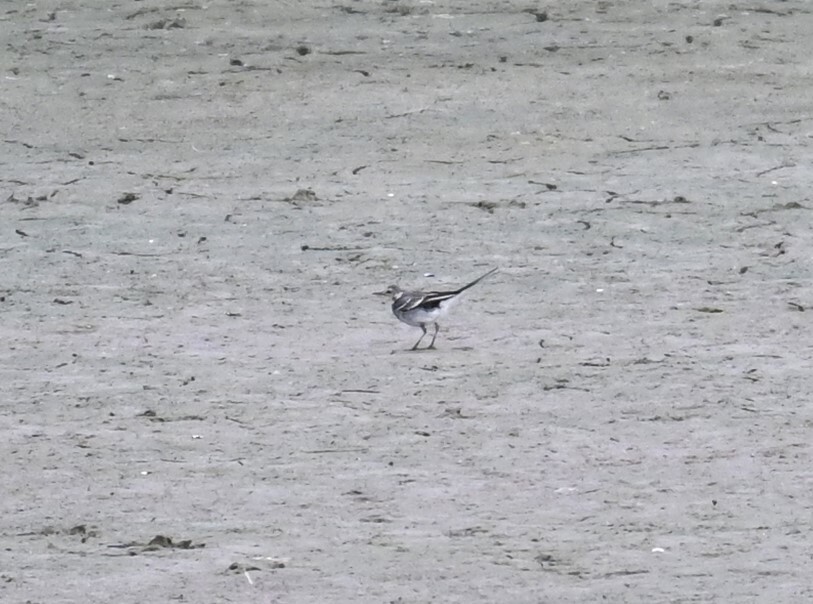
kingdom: Animalia
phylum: Chordata
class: Aves
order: Passeriformes
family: Motacillidae
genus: Motacilla
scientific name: Motacilla alba
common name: White wagtail
